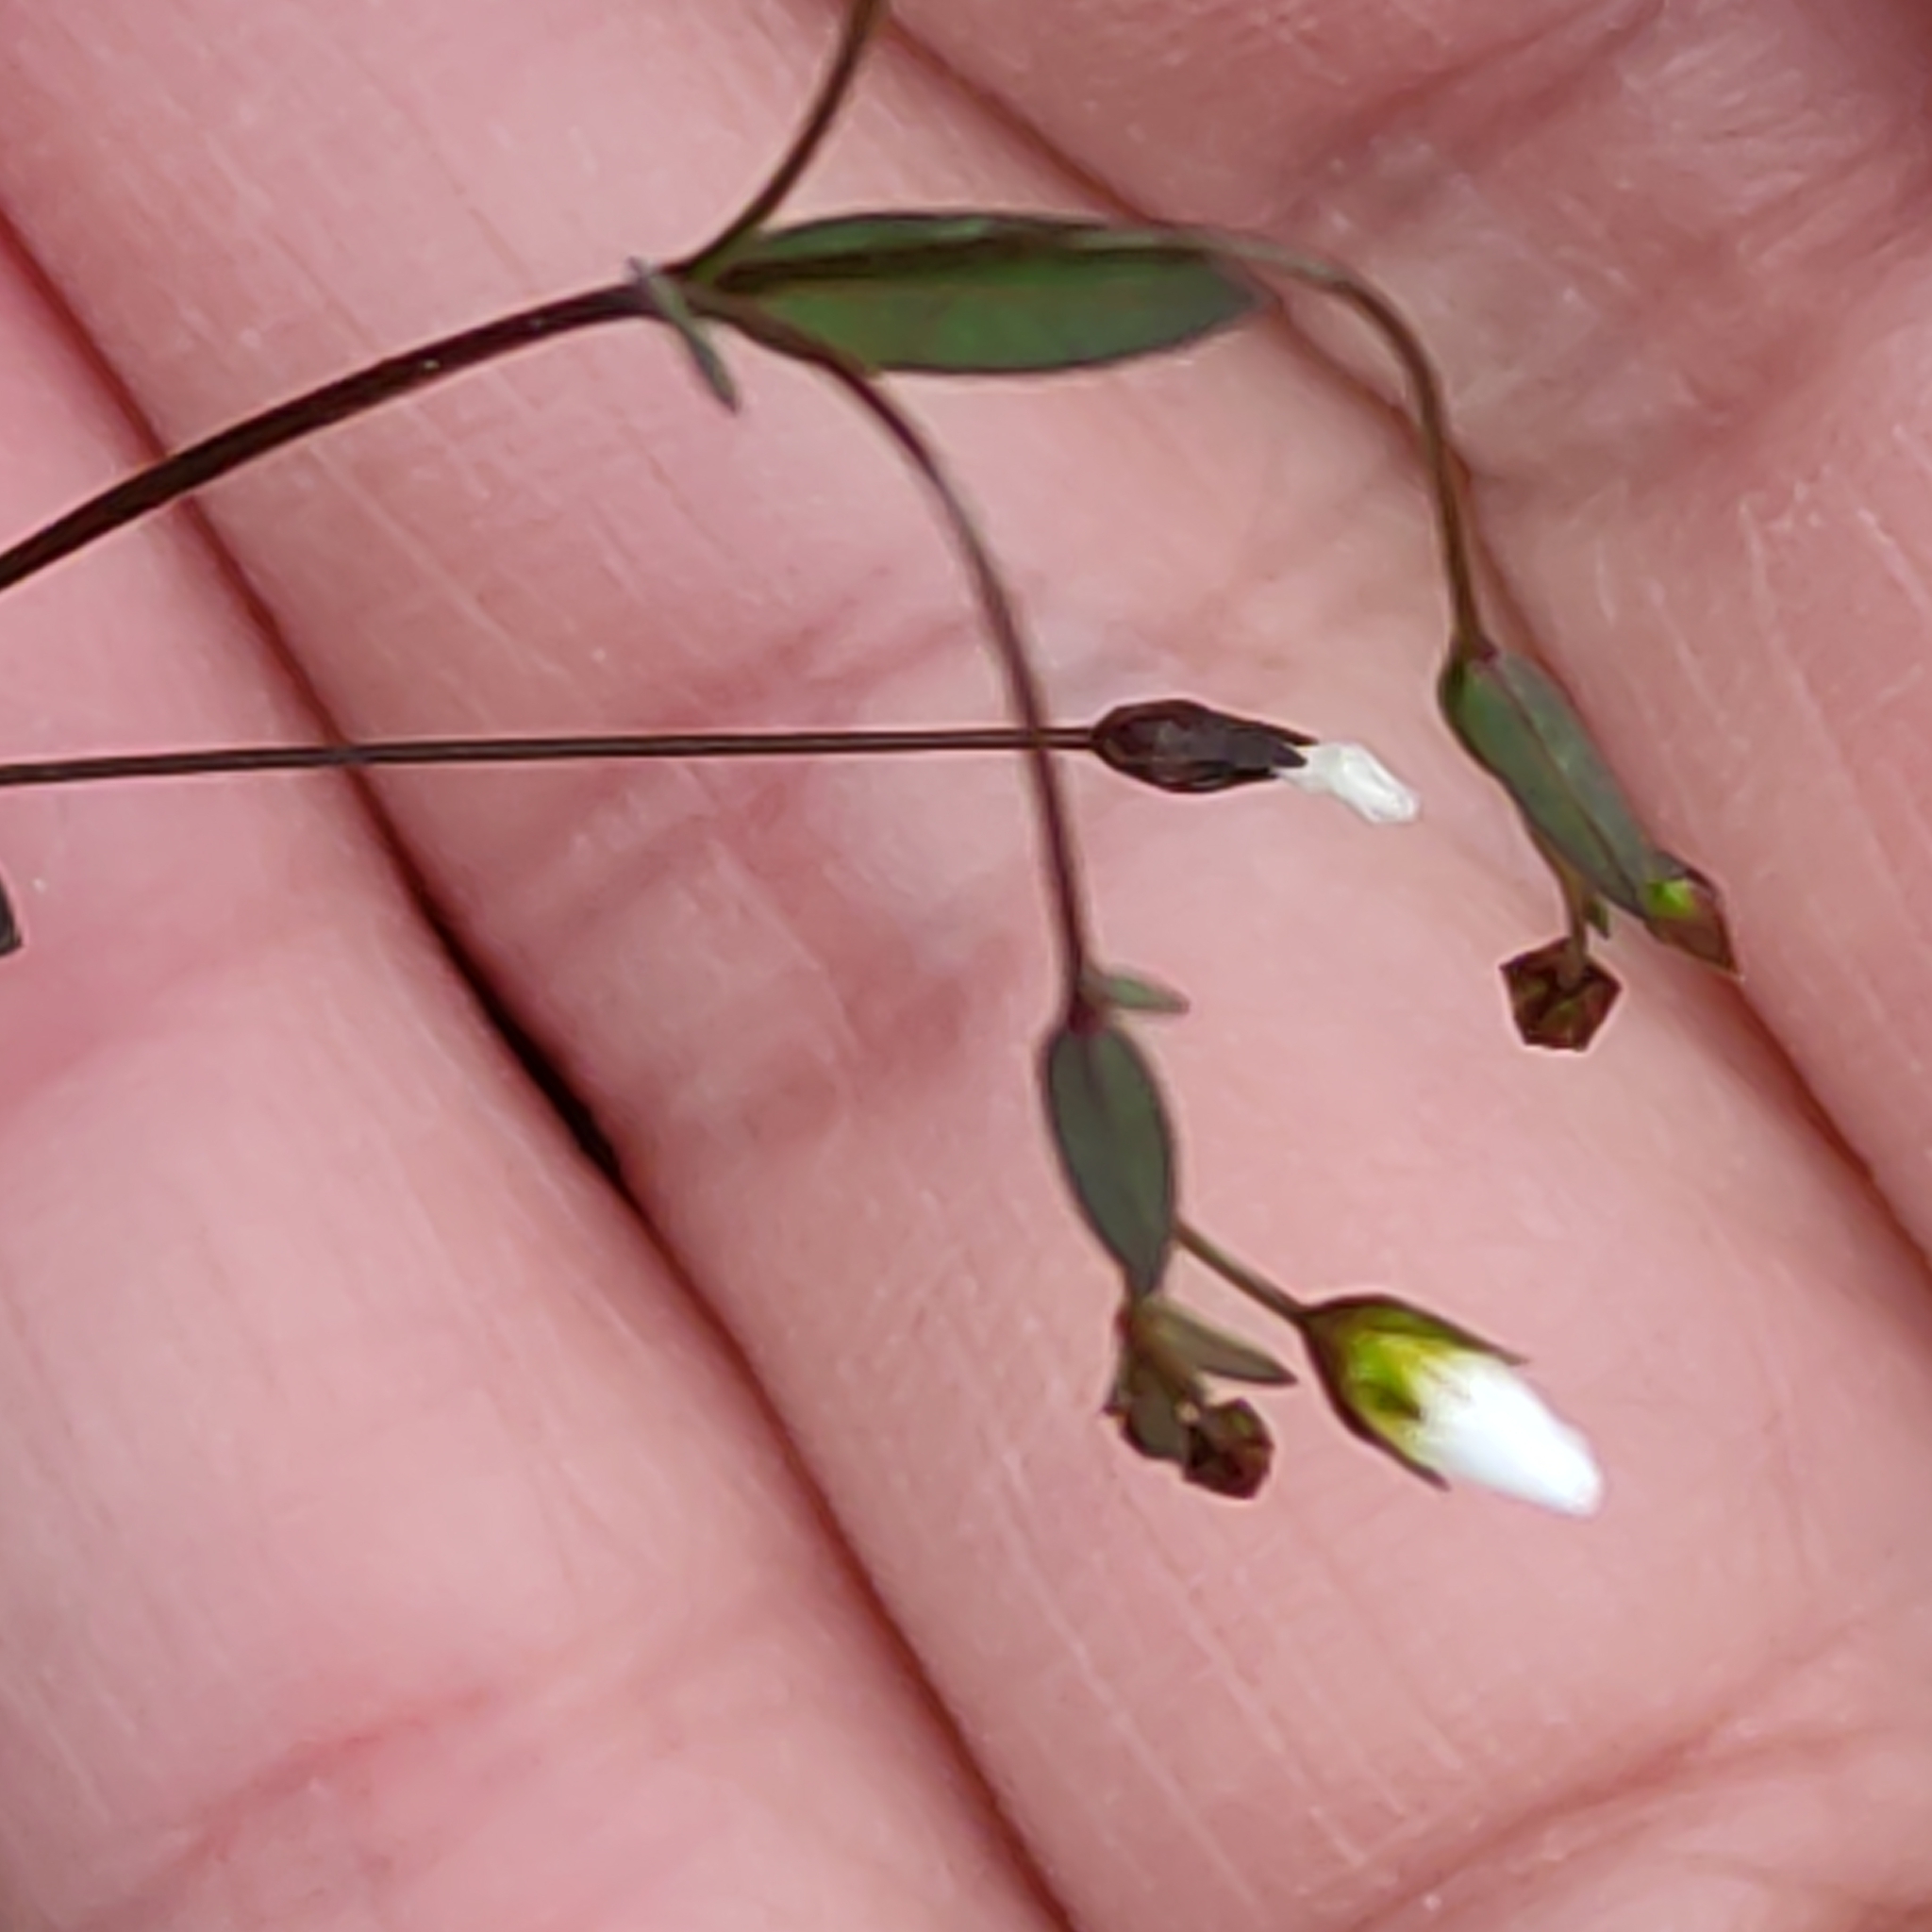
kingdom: Plantae
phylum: Tracheophyta
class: Magnoliopsida
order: Malpighiales
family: Linaceae
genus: Linum
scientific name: Linum catharticum
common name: Fairy flax
